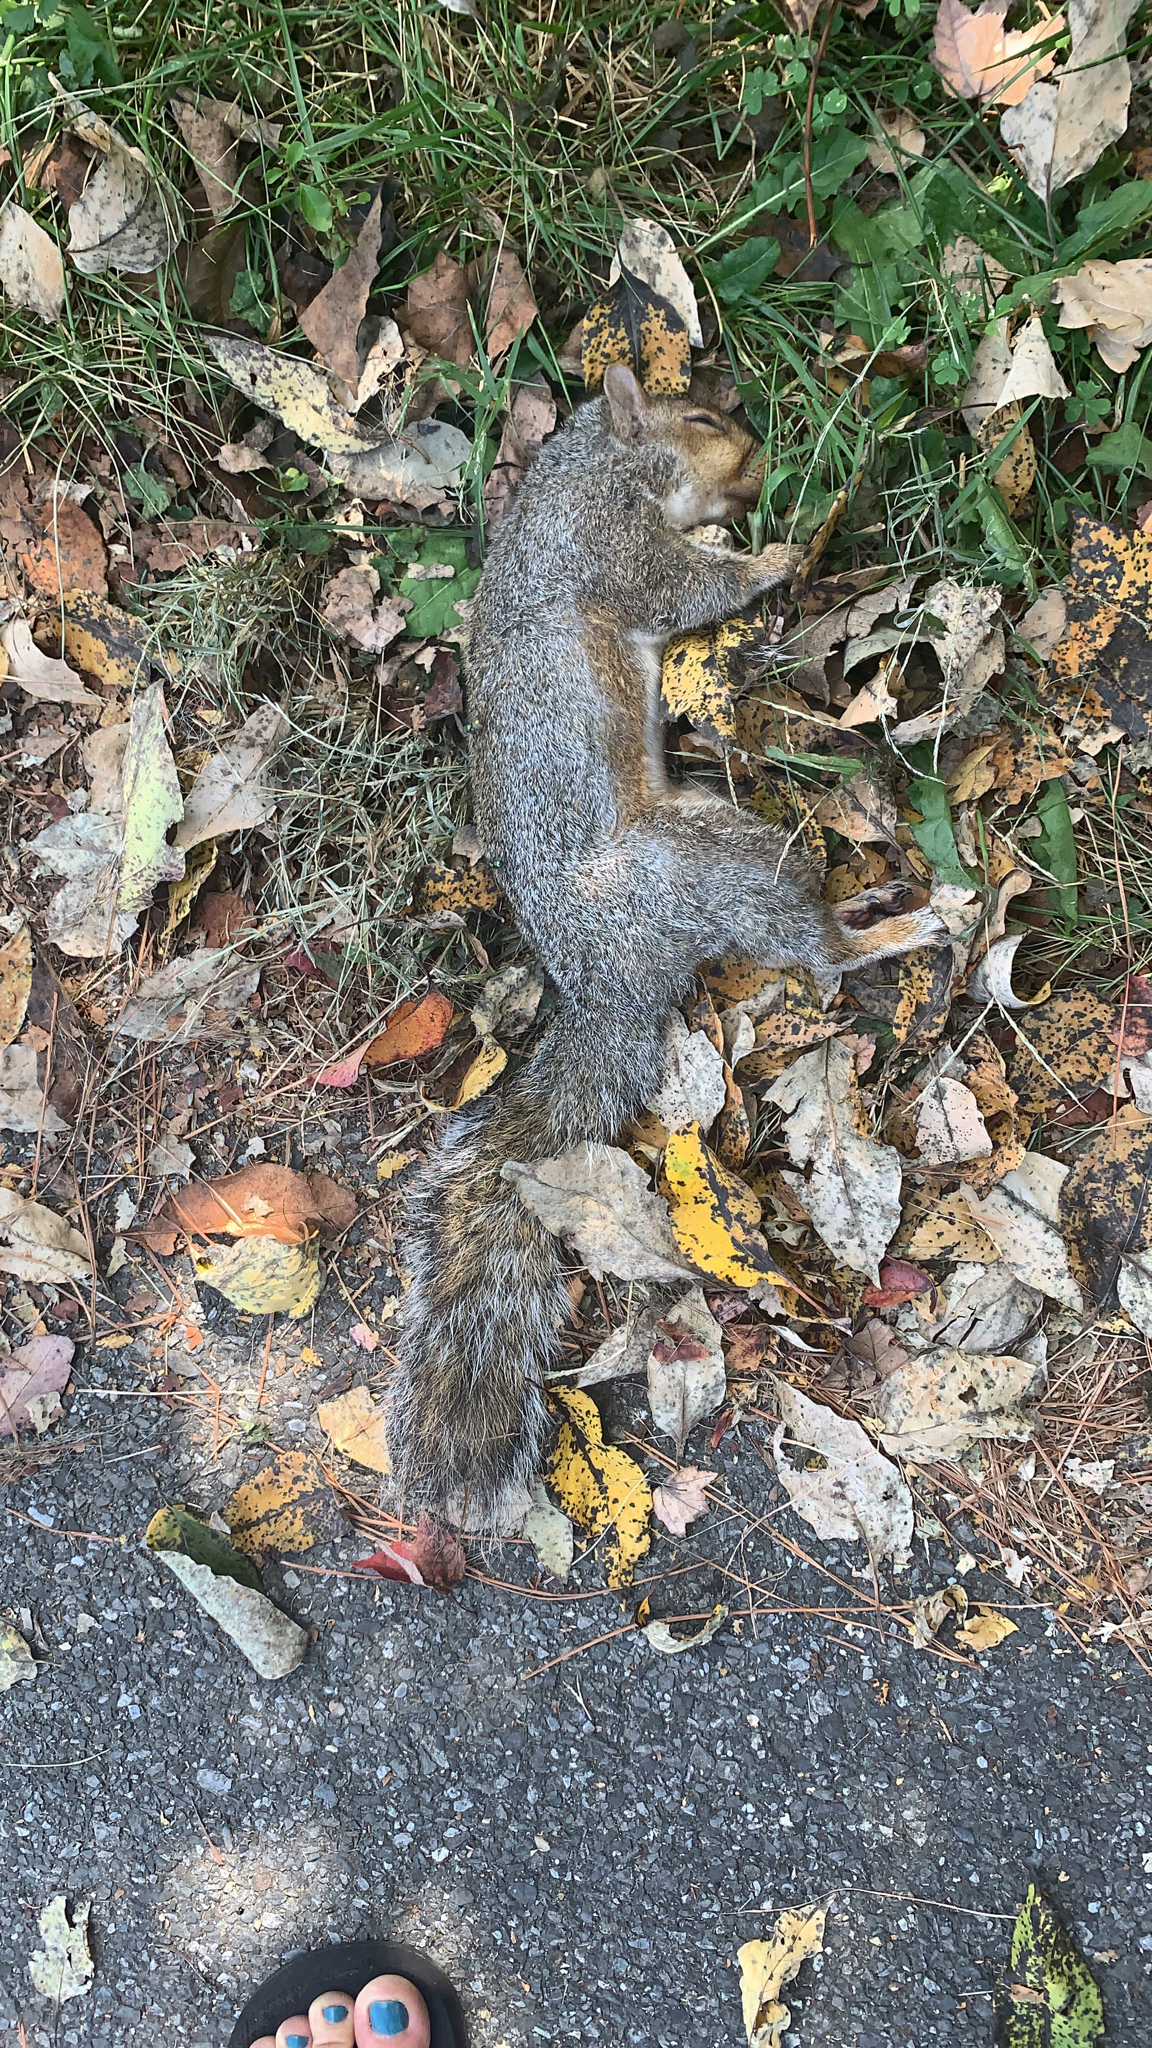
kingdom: Animalia
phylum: Chordata
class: Mammalia
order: Rodentia
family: Sciuridae
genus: Sciurus
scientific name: Sciurus carolinensis
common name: Eastern gray squirrel
